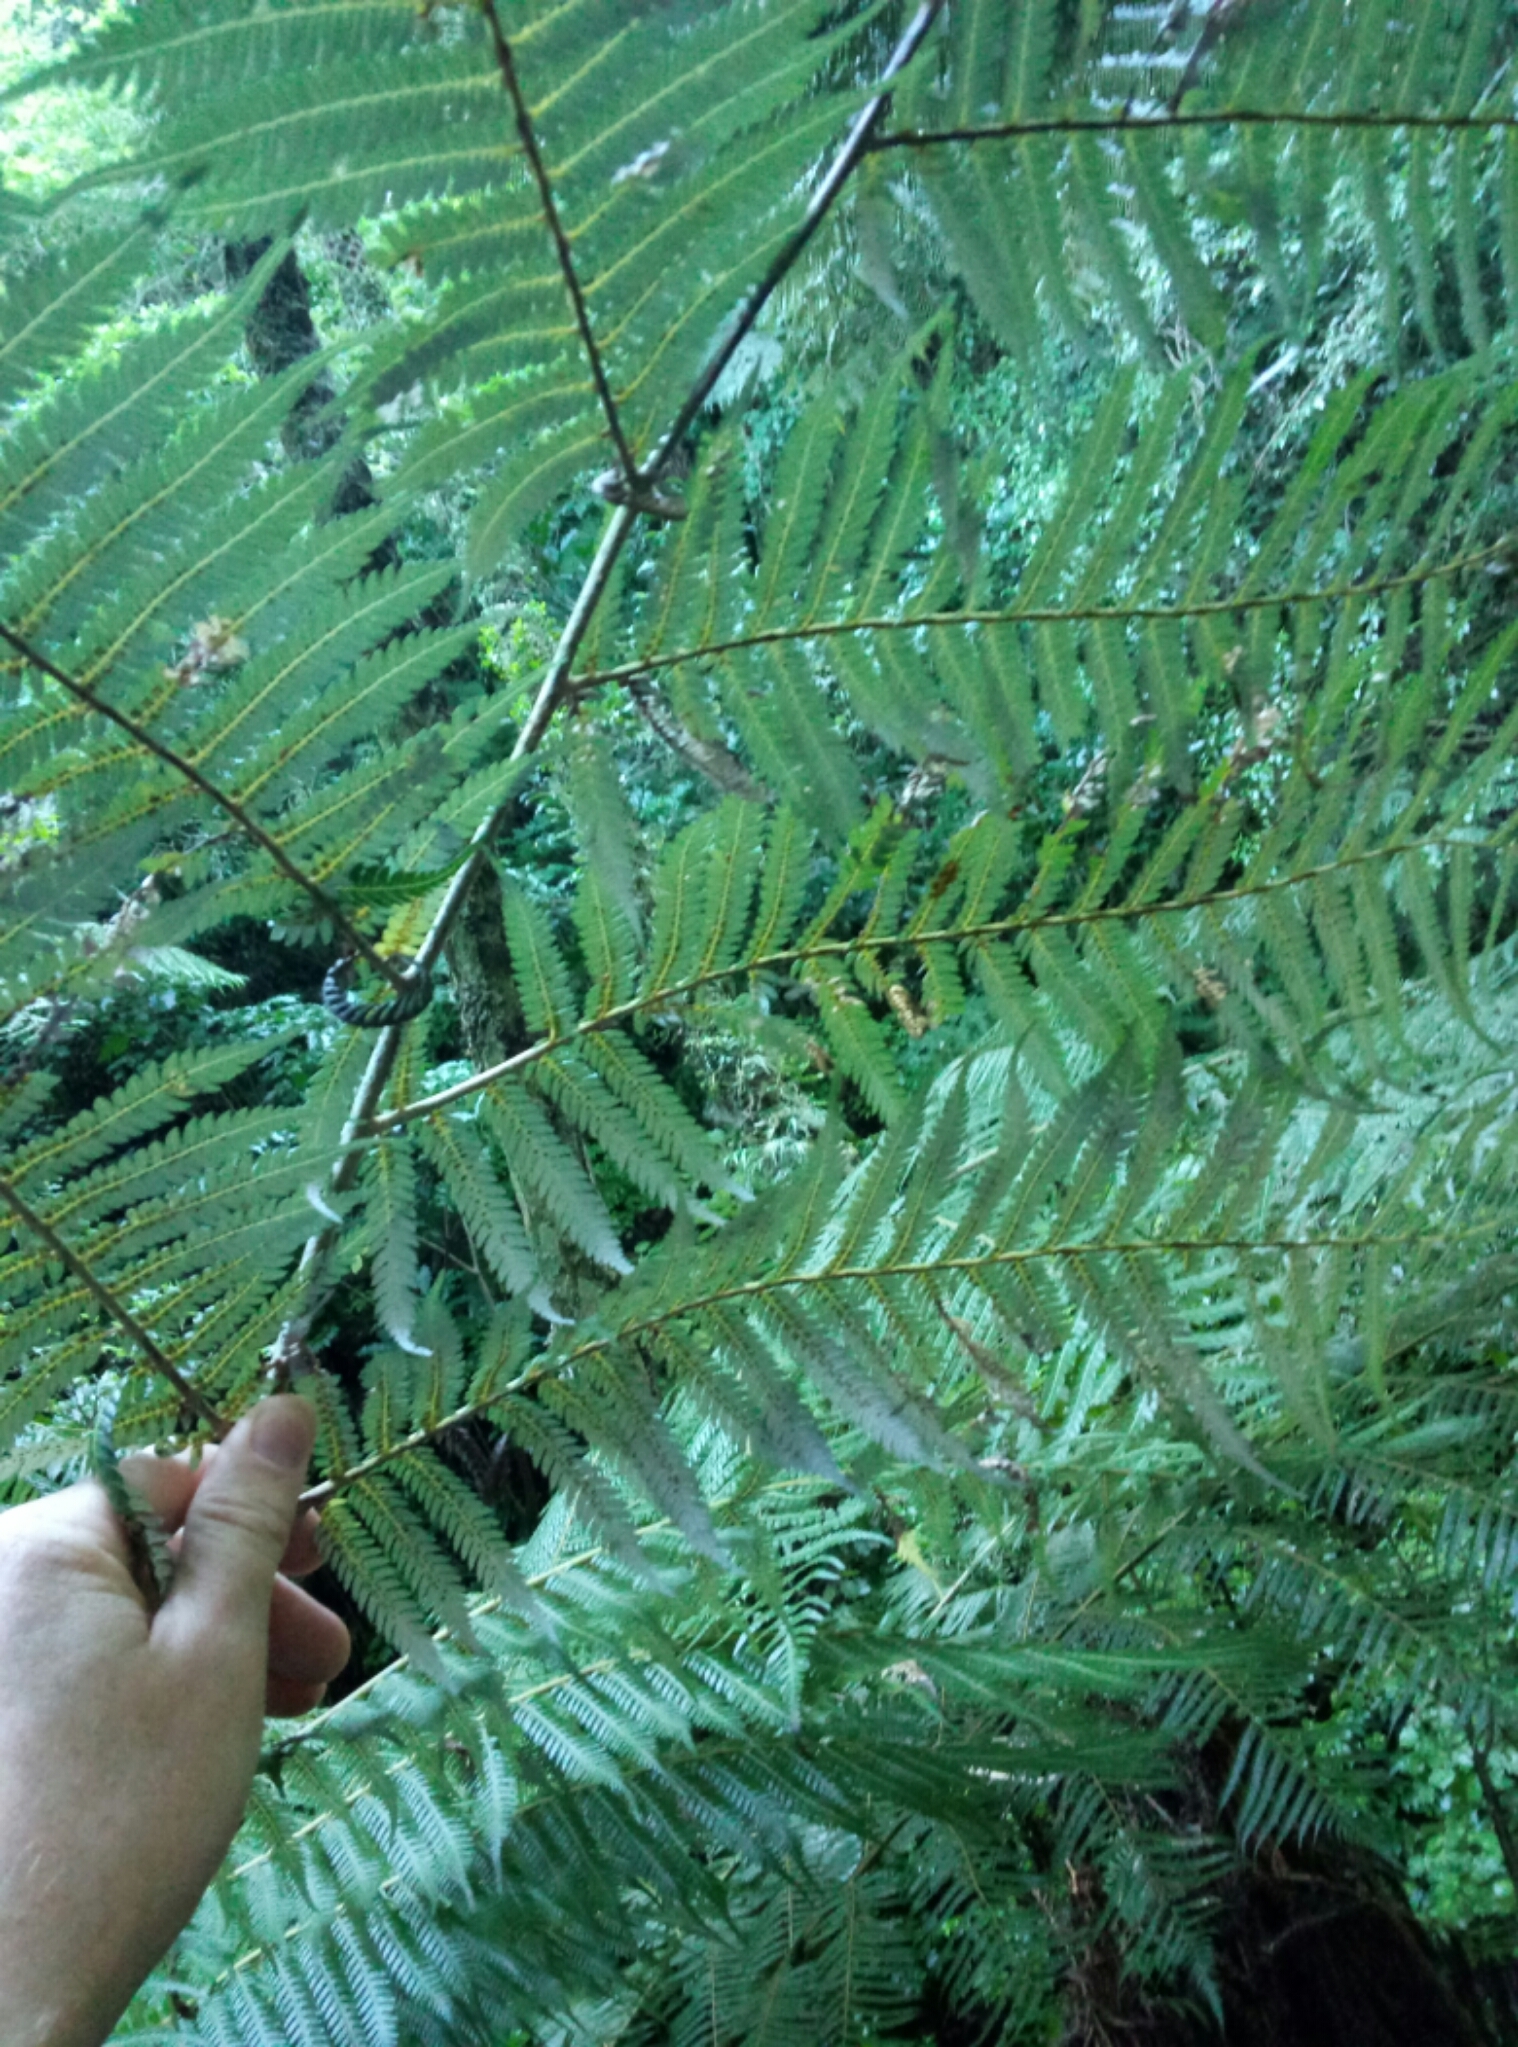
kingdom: Plantae
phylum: Tracheophyta
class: Polypodiopsida
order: Cyatheales
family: Cyatheaceae
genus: Alsophila
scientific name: Alsophila dealbata
